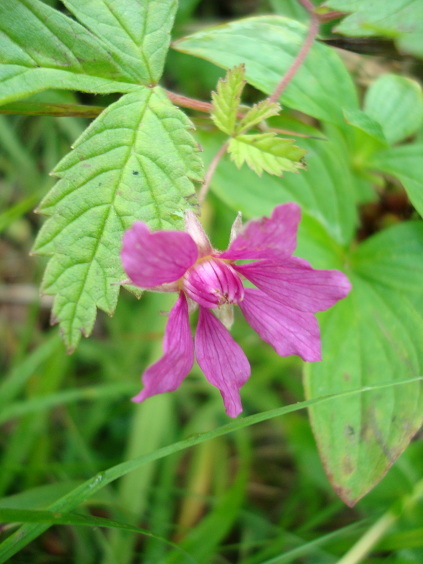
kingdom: Plantae
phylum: Tracheophyta
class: Magnoliopsida
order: Rosales
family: Rosaceae
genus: Rubus
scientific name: Rubus arcticus
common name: Arctic bramble
